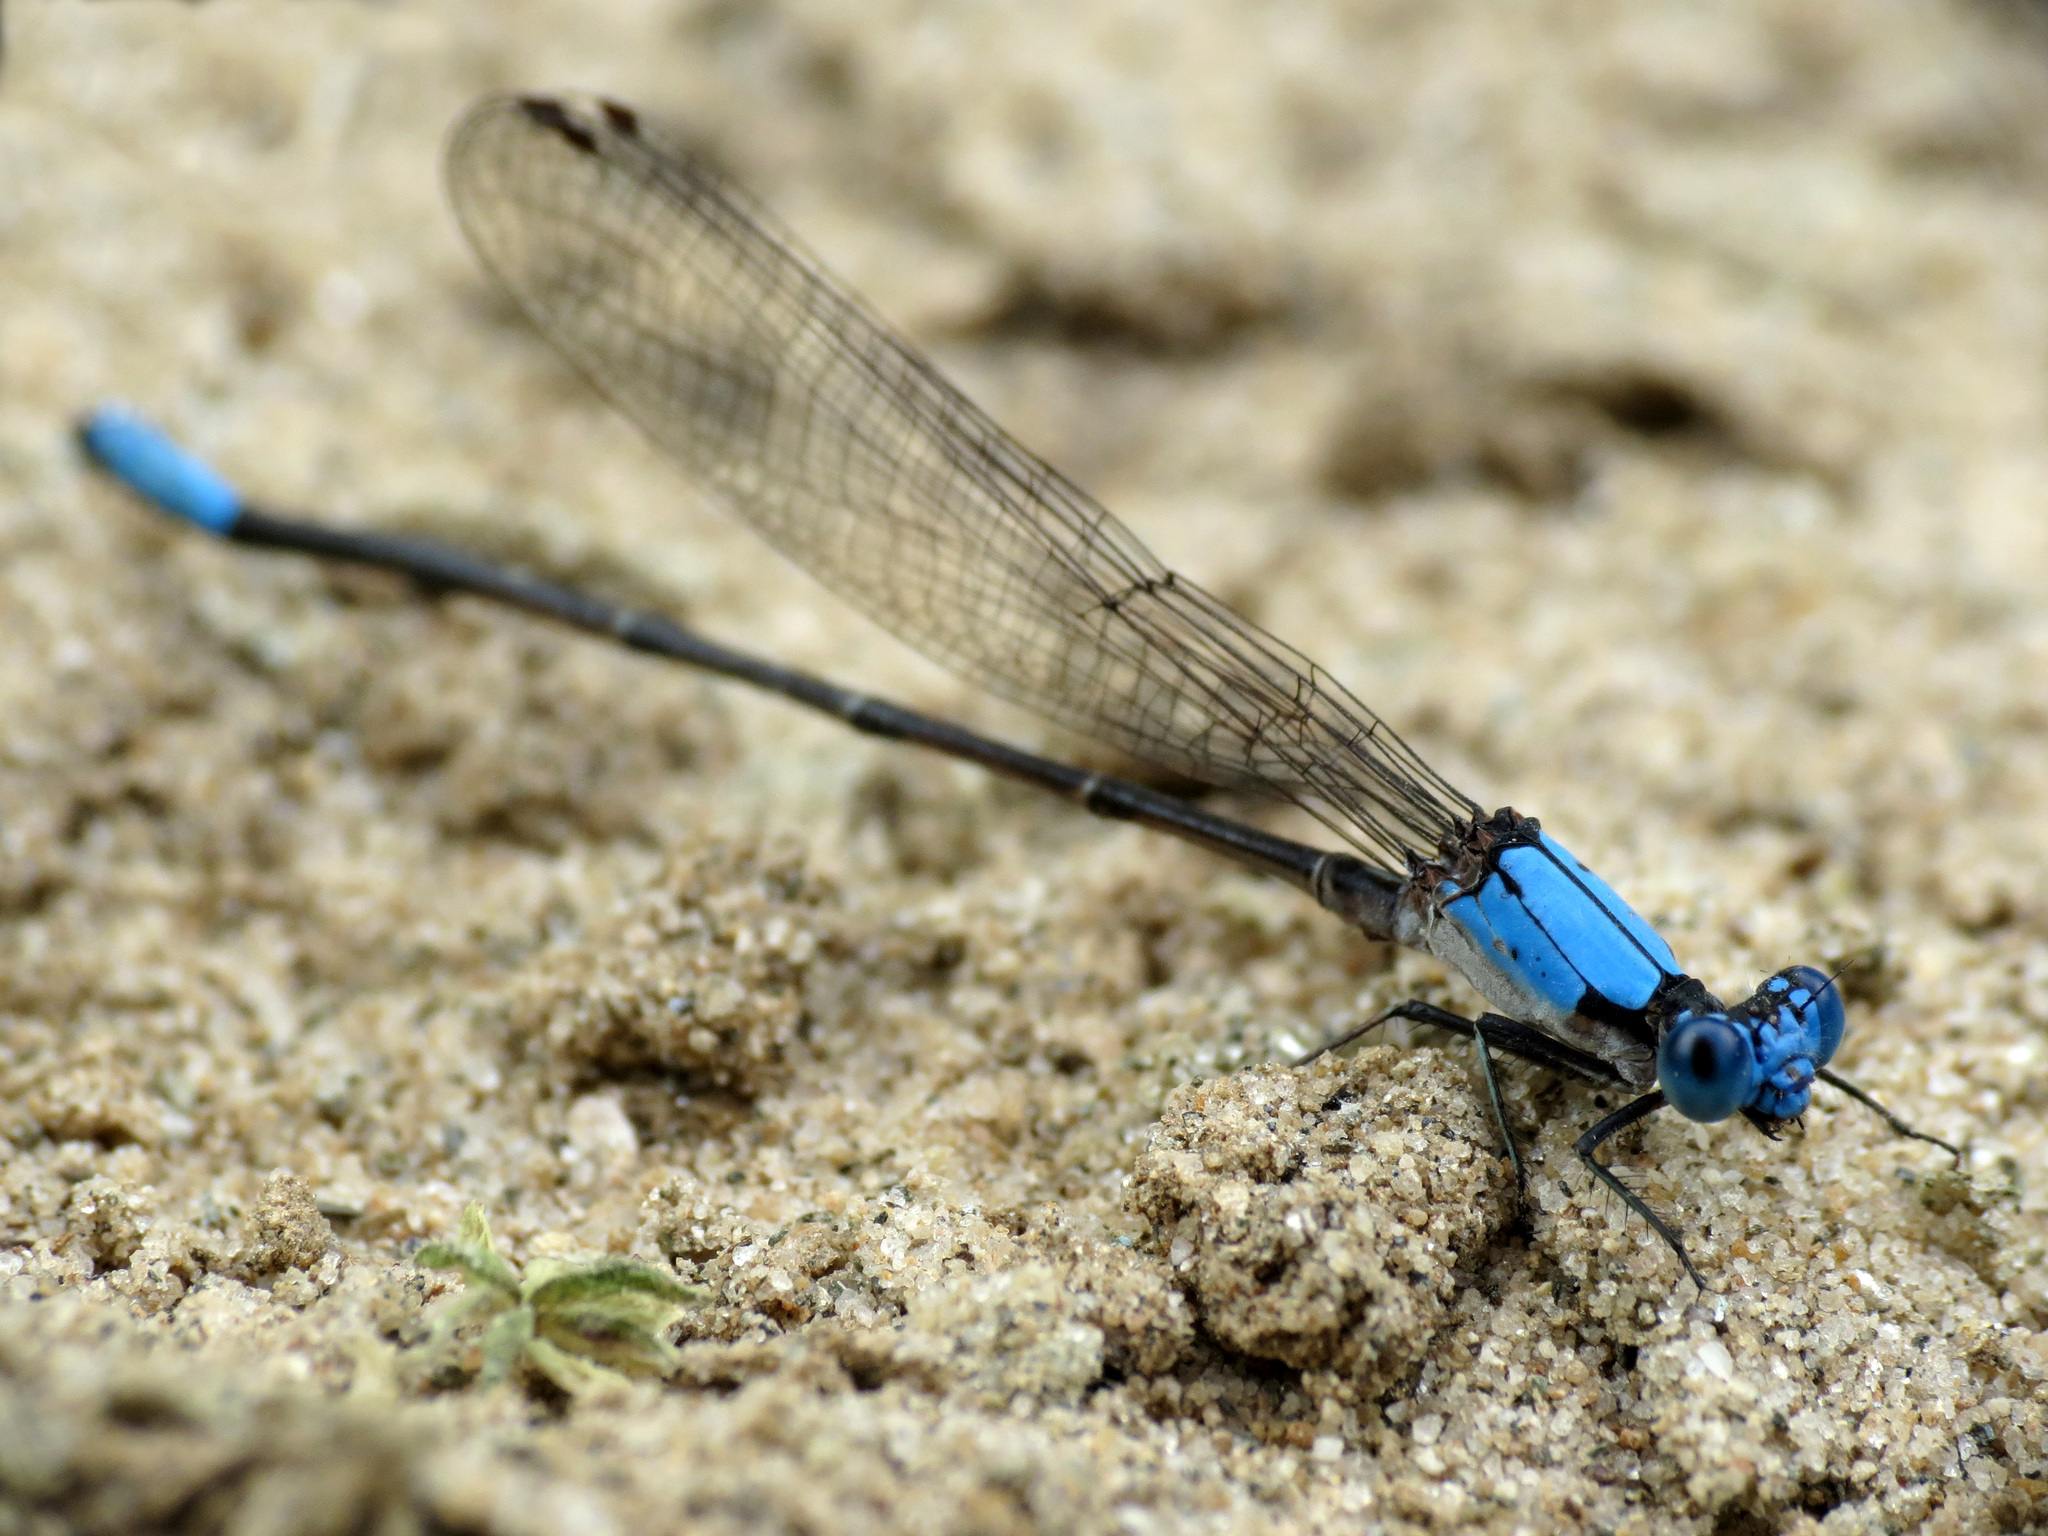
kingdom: Animalia
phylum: Arthropoda
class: Insecta
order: Odonata
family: Coenagrionidae
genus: Argia
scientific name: Argia apicalis
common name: Blue-fronted dancer
